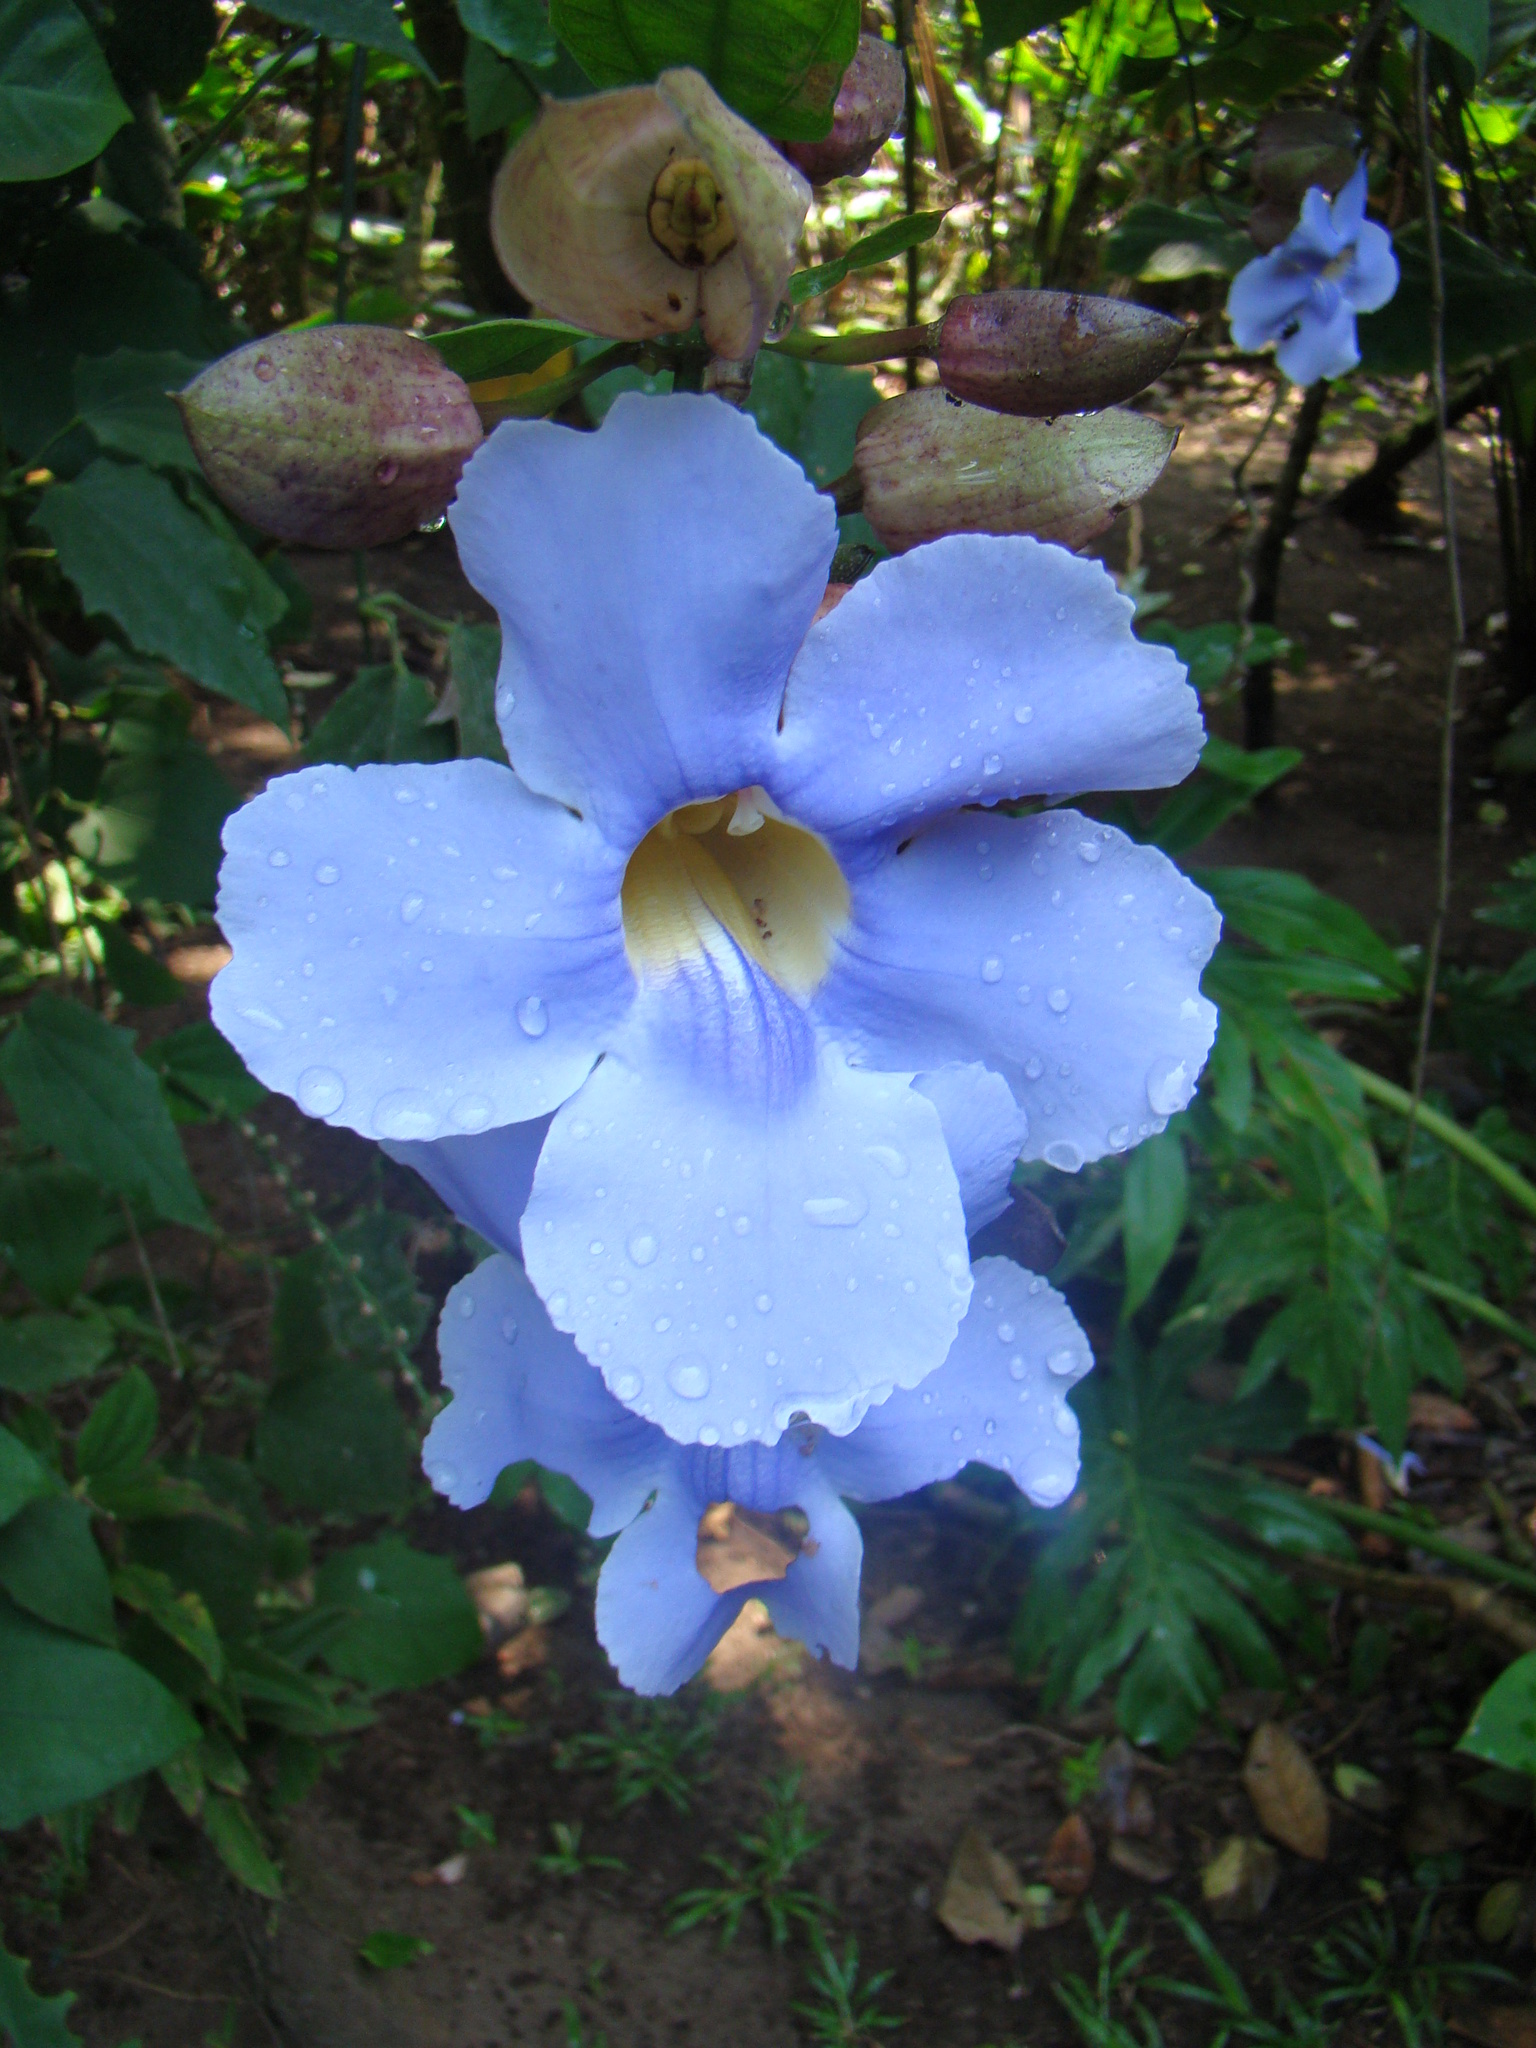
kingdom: Plantae
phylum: Tracheophyta
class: Magnoliopsida
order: Lamiales
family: Acanthaceae
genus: Thunbergia
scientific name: Thunbergia grandiflora
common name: Bengal trumpet
